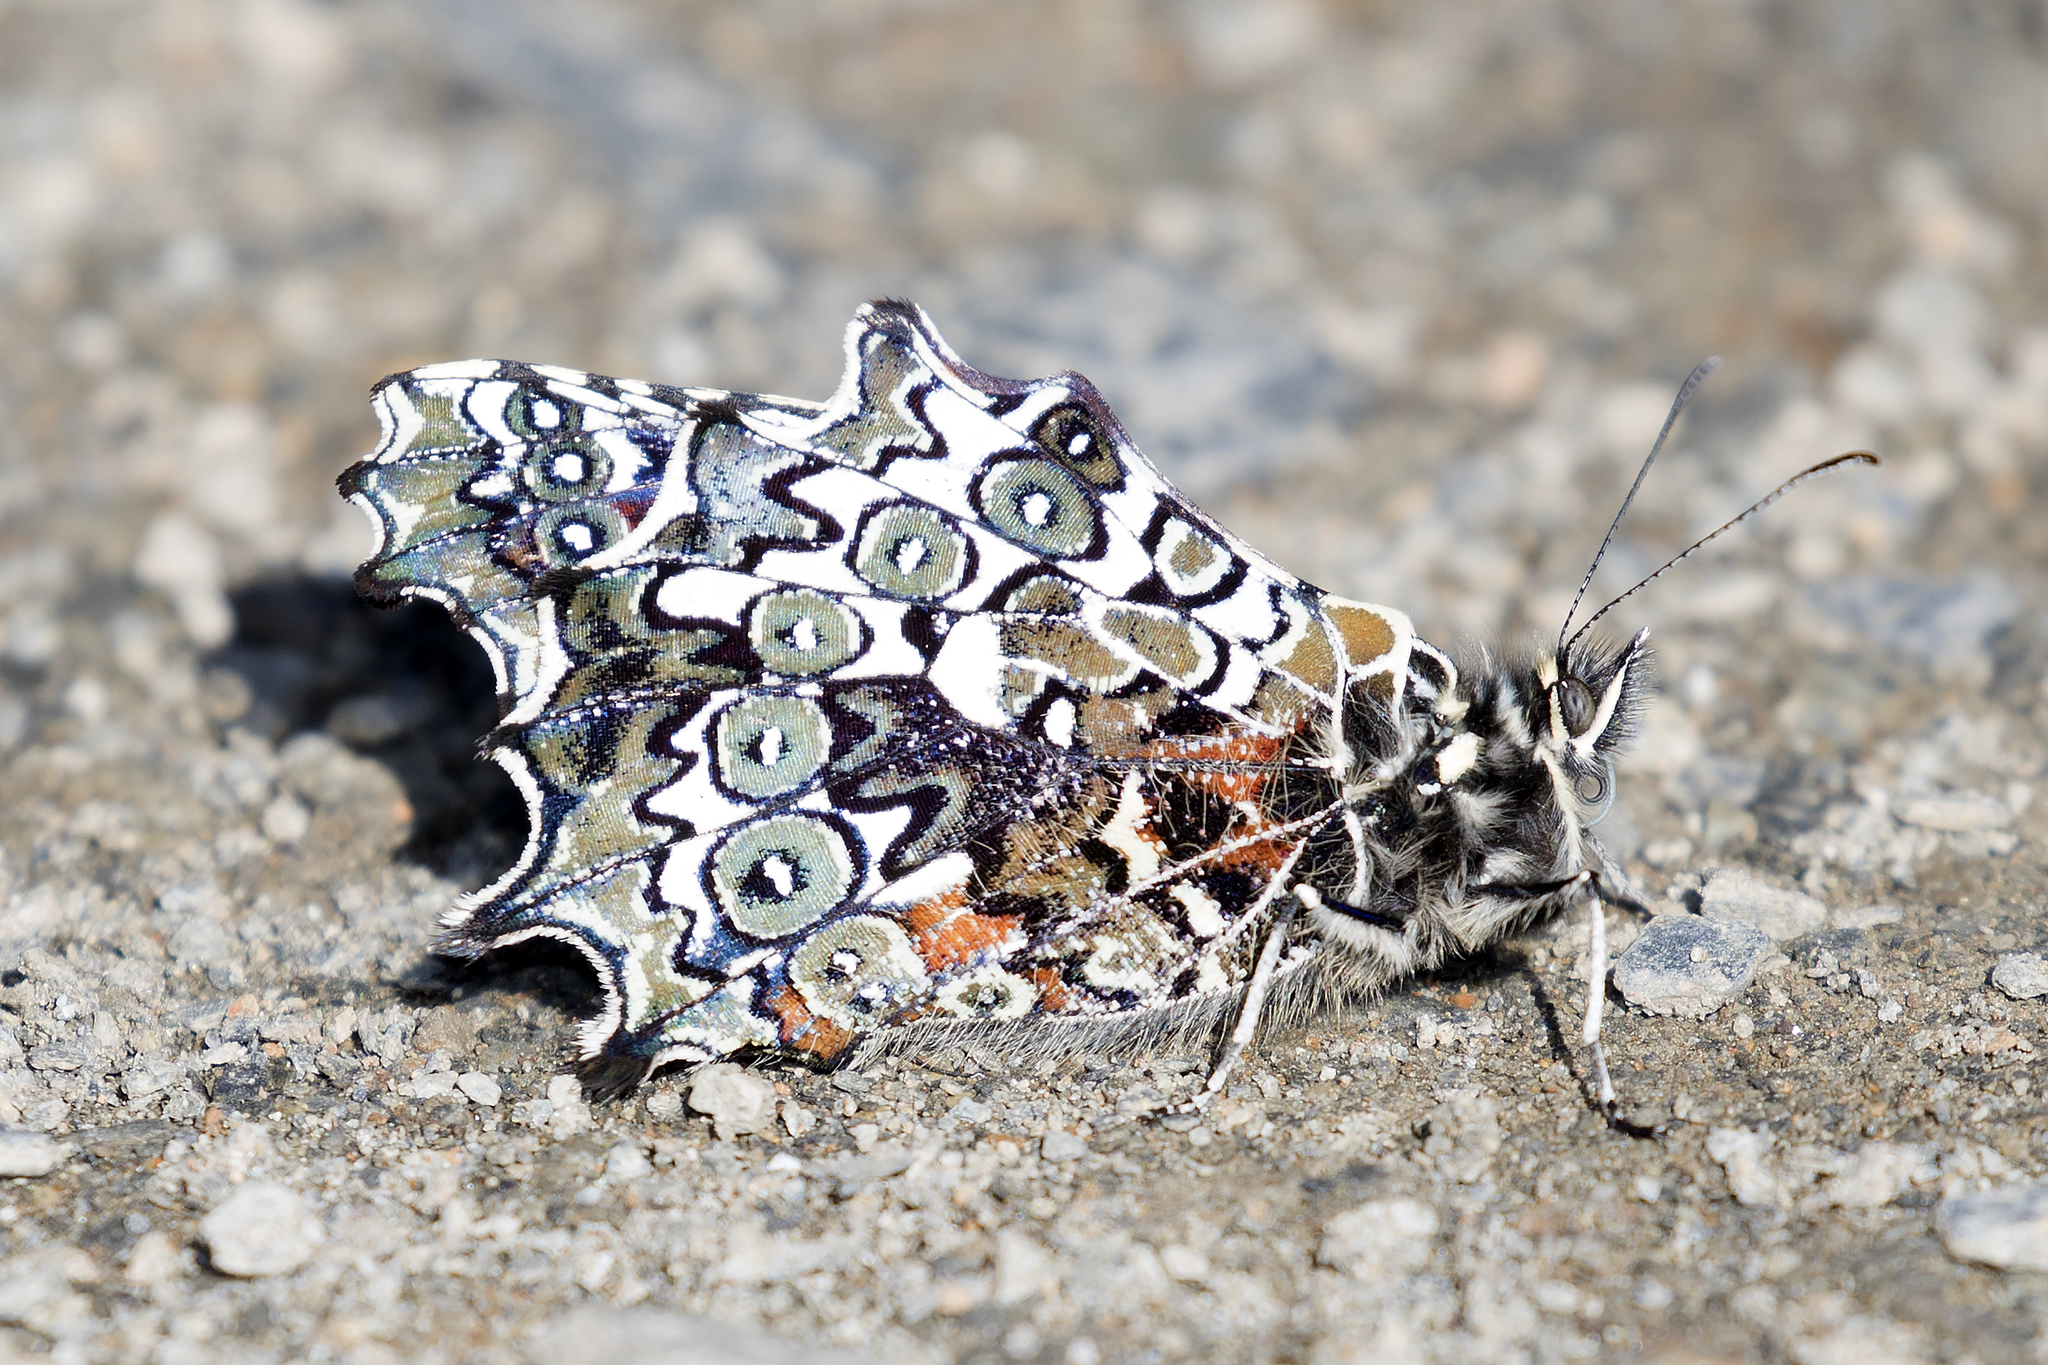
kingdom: Animalia
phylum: Arthropoda
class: Insecta
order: Lepidoptera
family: Nymphalidae
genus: Junea
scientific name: Junea doraete
